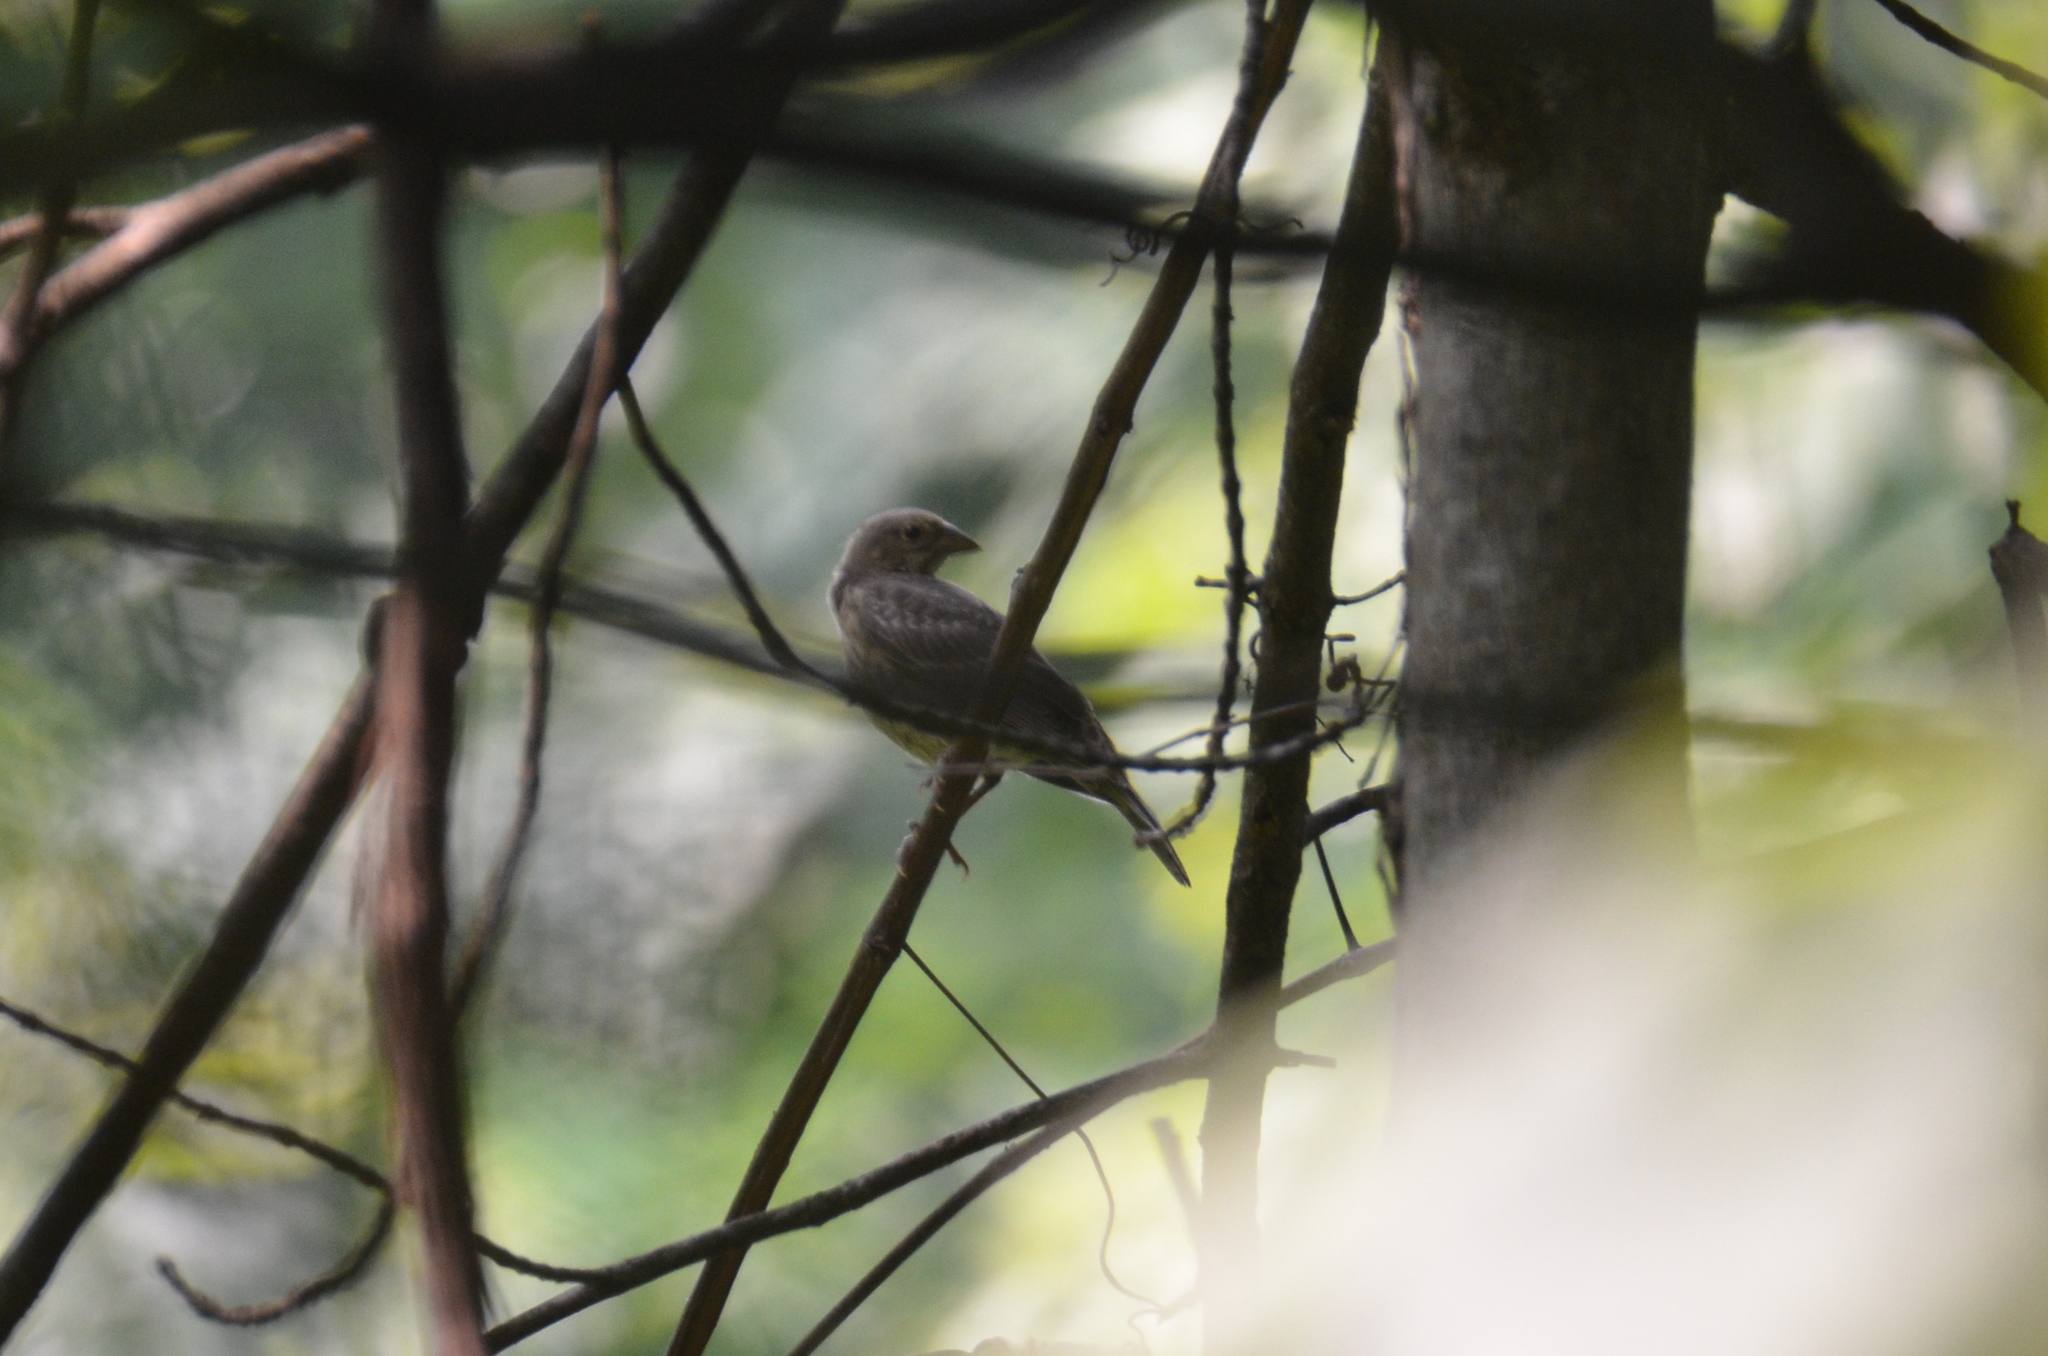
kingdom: Animalia
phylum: Chordata
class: Aves
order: Passeriformes
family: Icteridae
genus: Molothrus
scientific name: Molothrus ater
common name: Brown-headed cowbird
